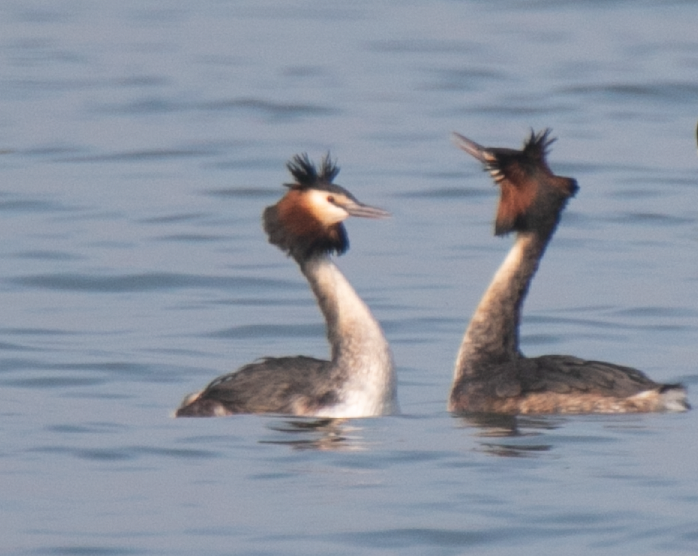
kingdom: Animalia
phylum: Chordata
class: Aves
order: Podicipediformes
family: Podicipedidae
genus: Podiceps
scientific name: Podiceps cristatus
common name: Great crested grebe
